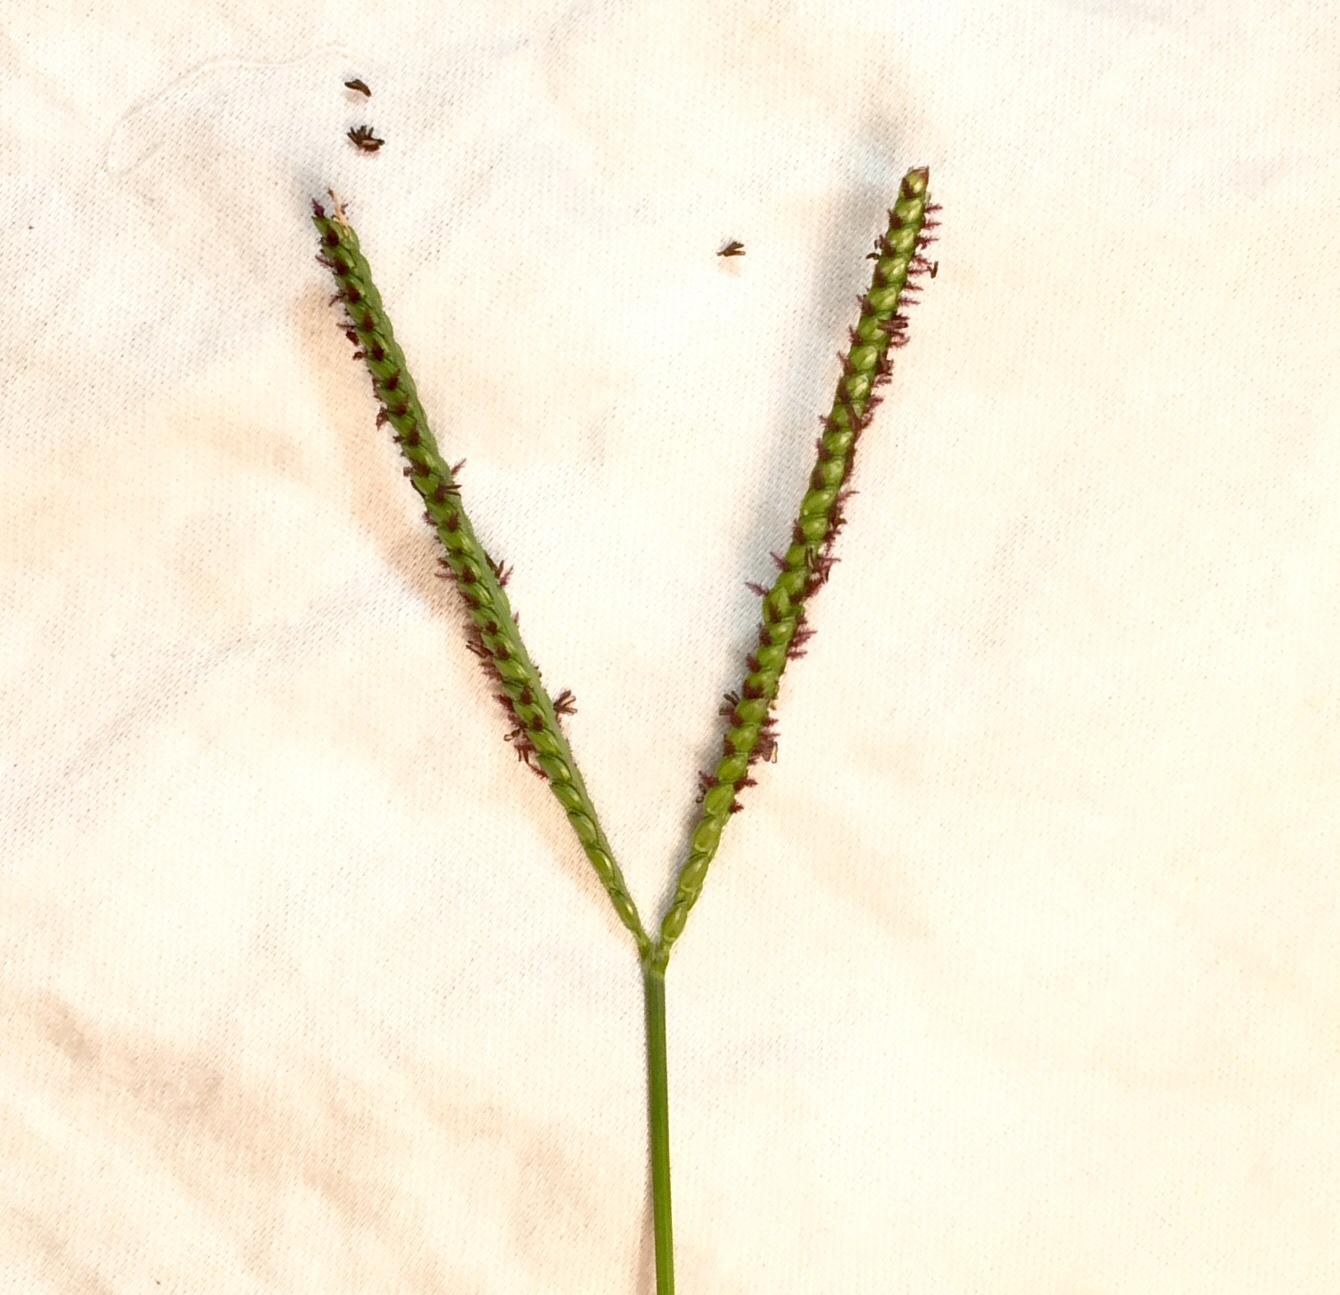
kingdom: Plantae
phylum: Tracheophyta
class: Liliopsida
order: Poales
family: Poaceae
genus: Paspalum
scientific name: Paspalum notatum
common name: Bahiagrass
